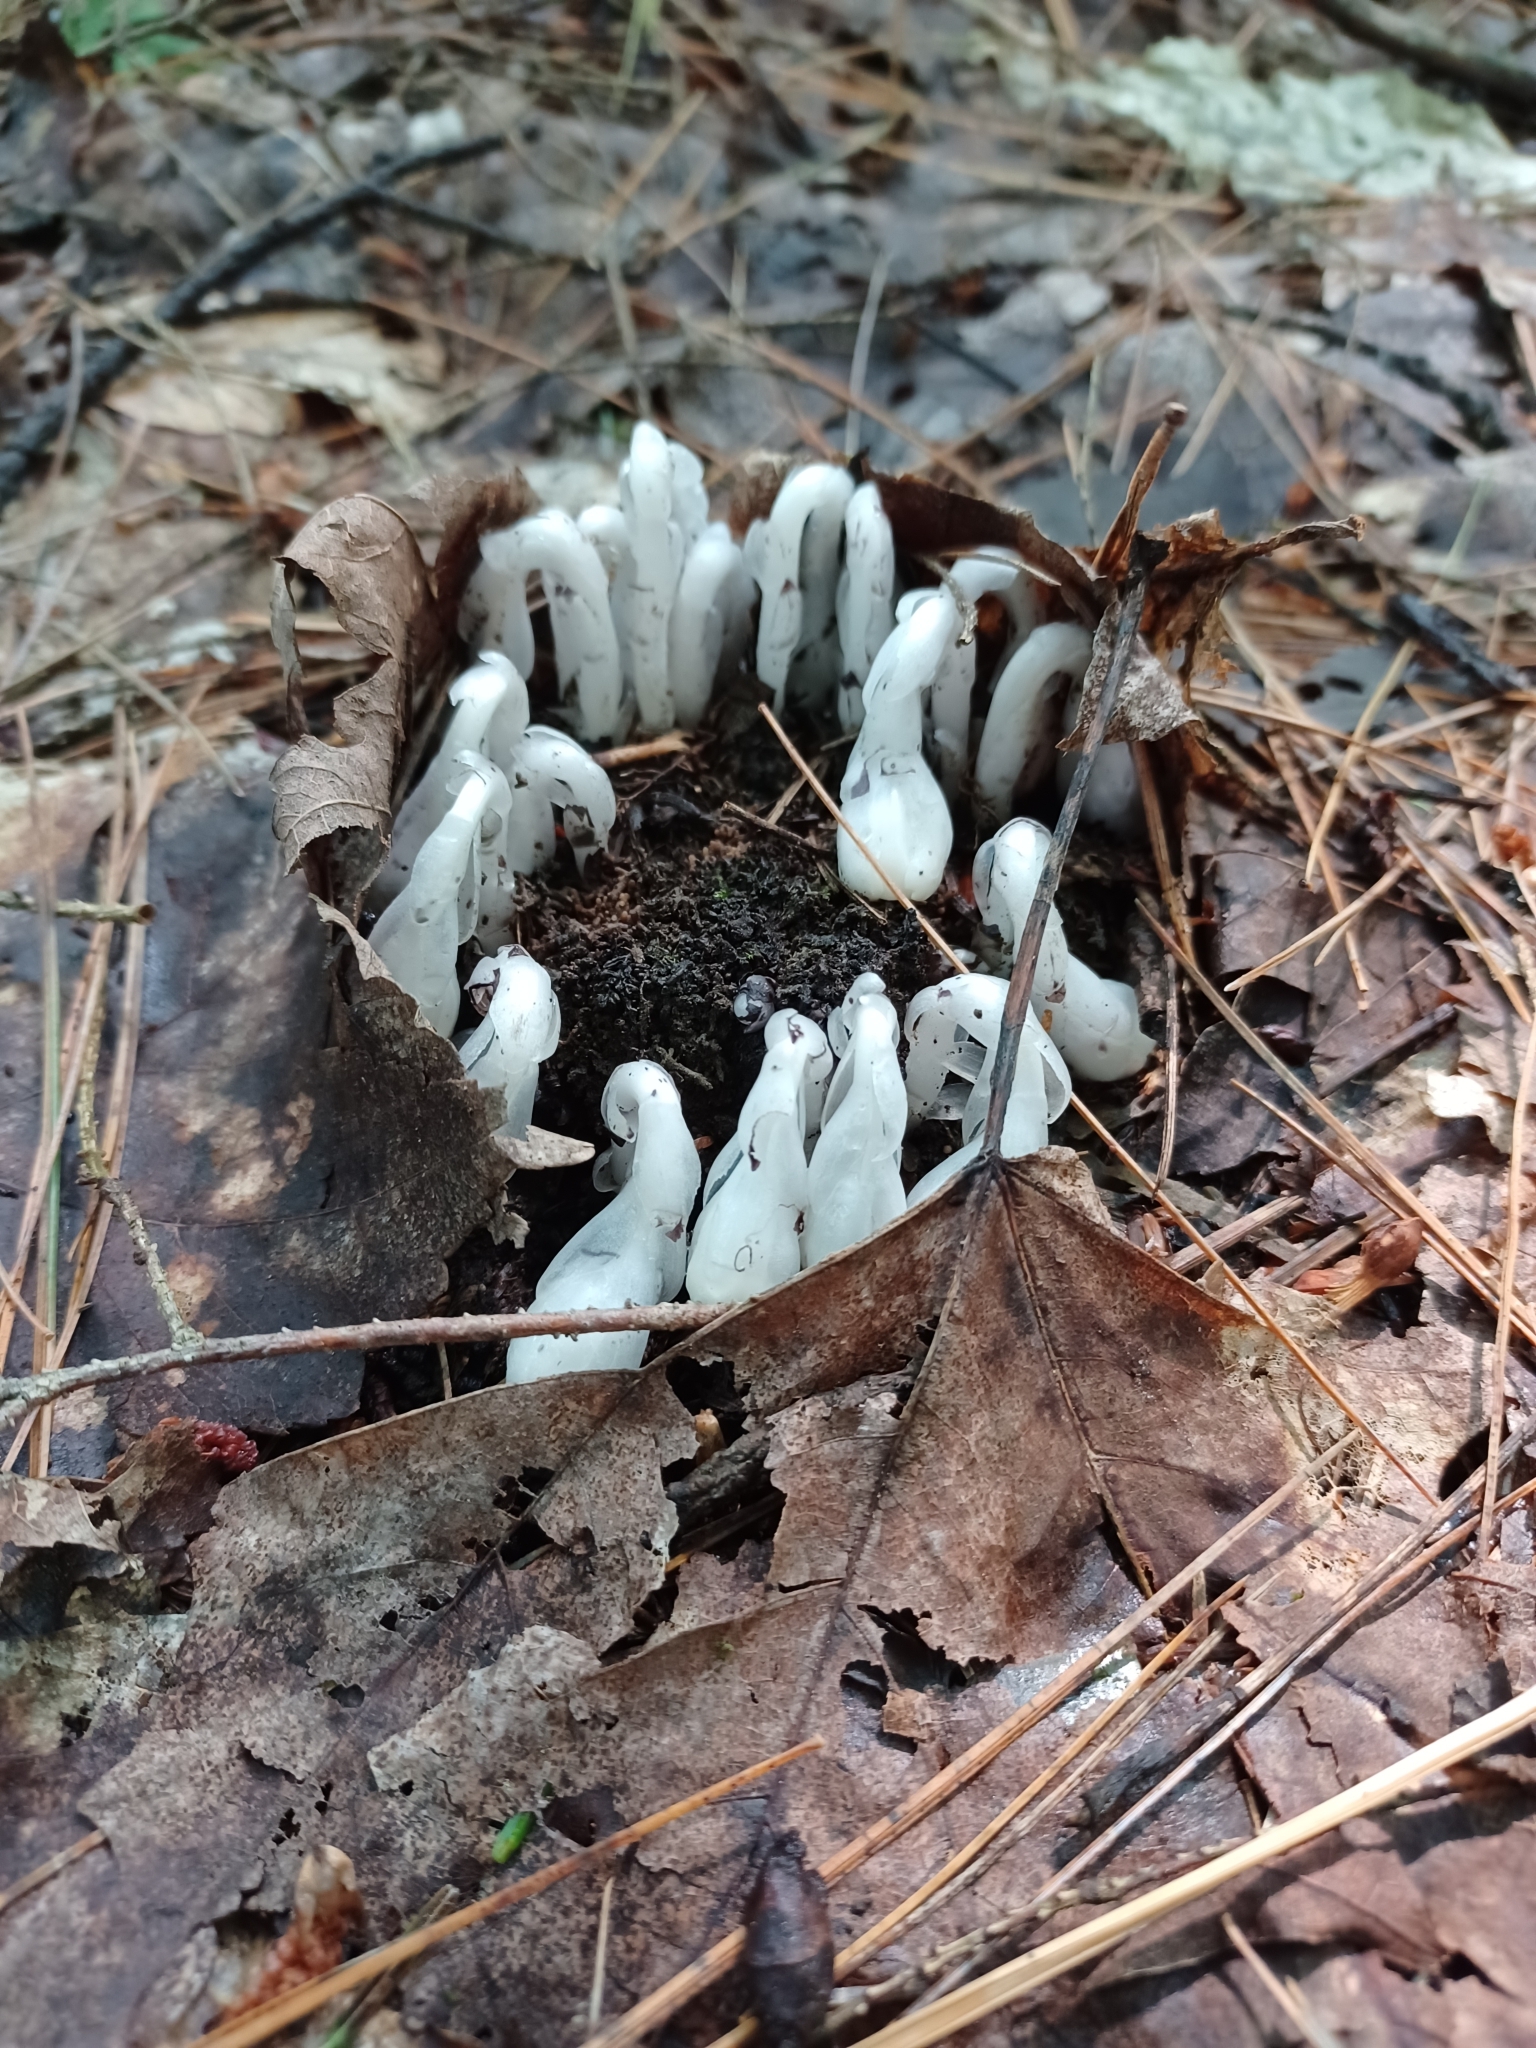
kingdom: Plantae
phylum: Tracheophyta
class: Magnoliopsida
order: Ericales
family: Ericaceae
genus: Monotropa
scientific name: Monotropa uniflora
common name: Convulsion root
